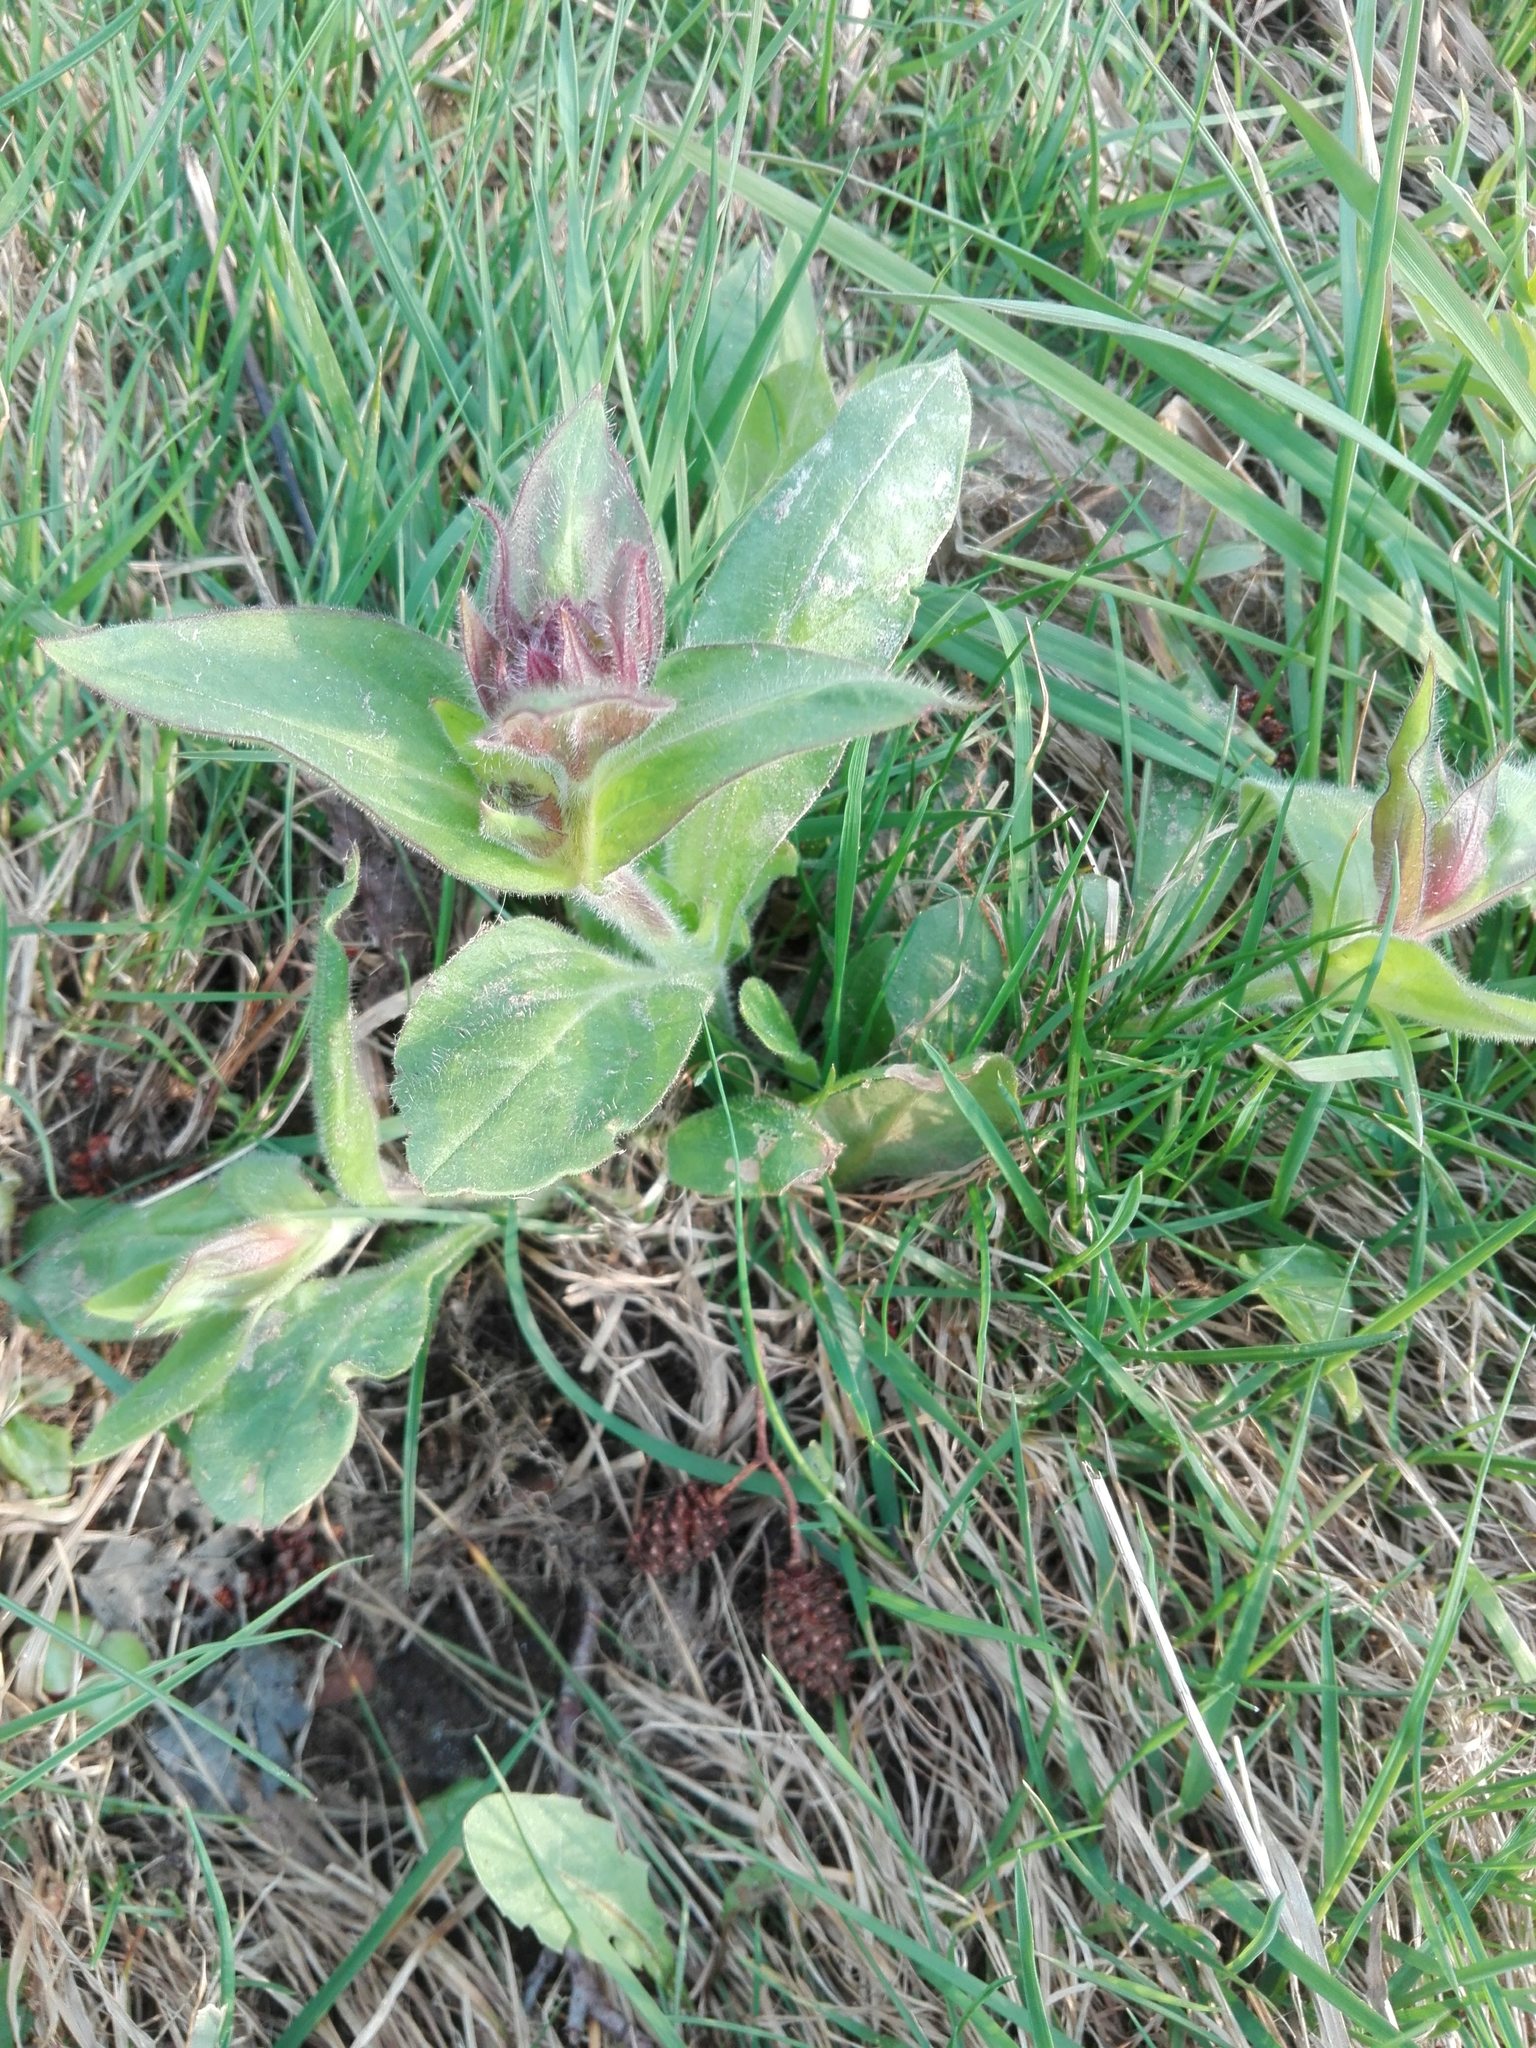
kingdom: Plantae
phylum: Tracheophyta
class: Magnoliopsida
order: Caryophyllales
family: Caryophyllaceae
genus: Silene
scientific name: Silene dioica
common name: Red campion
